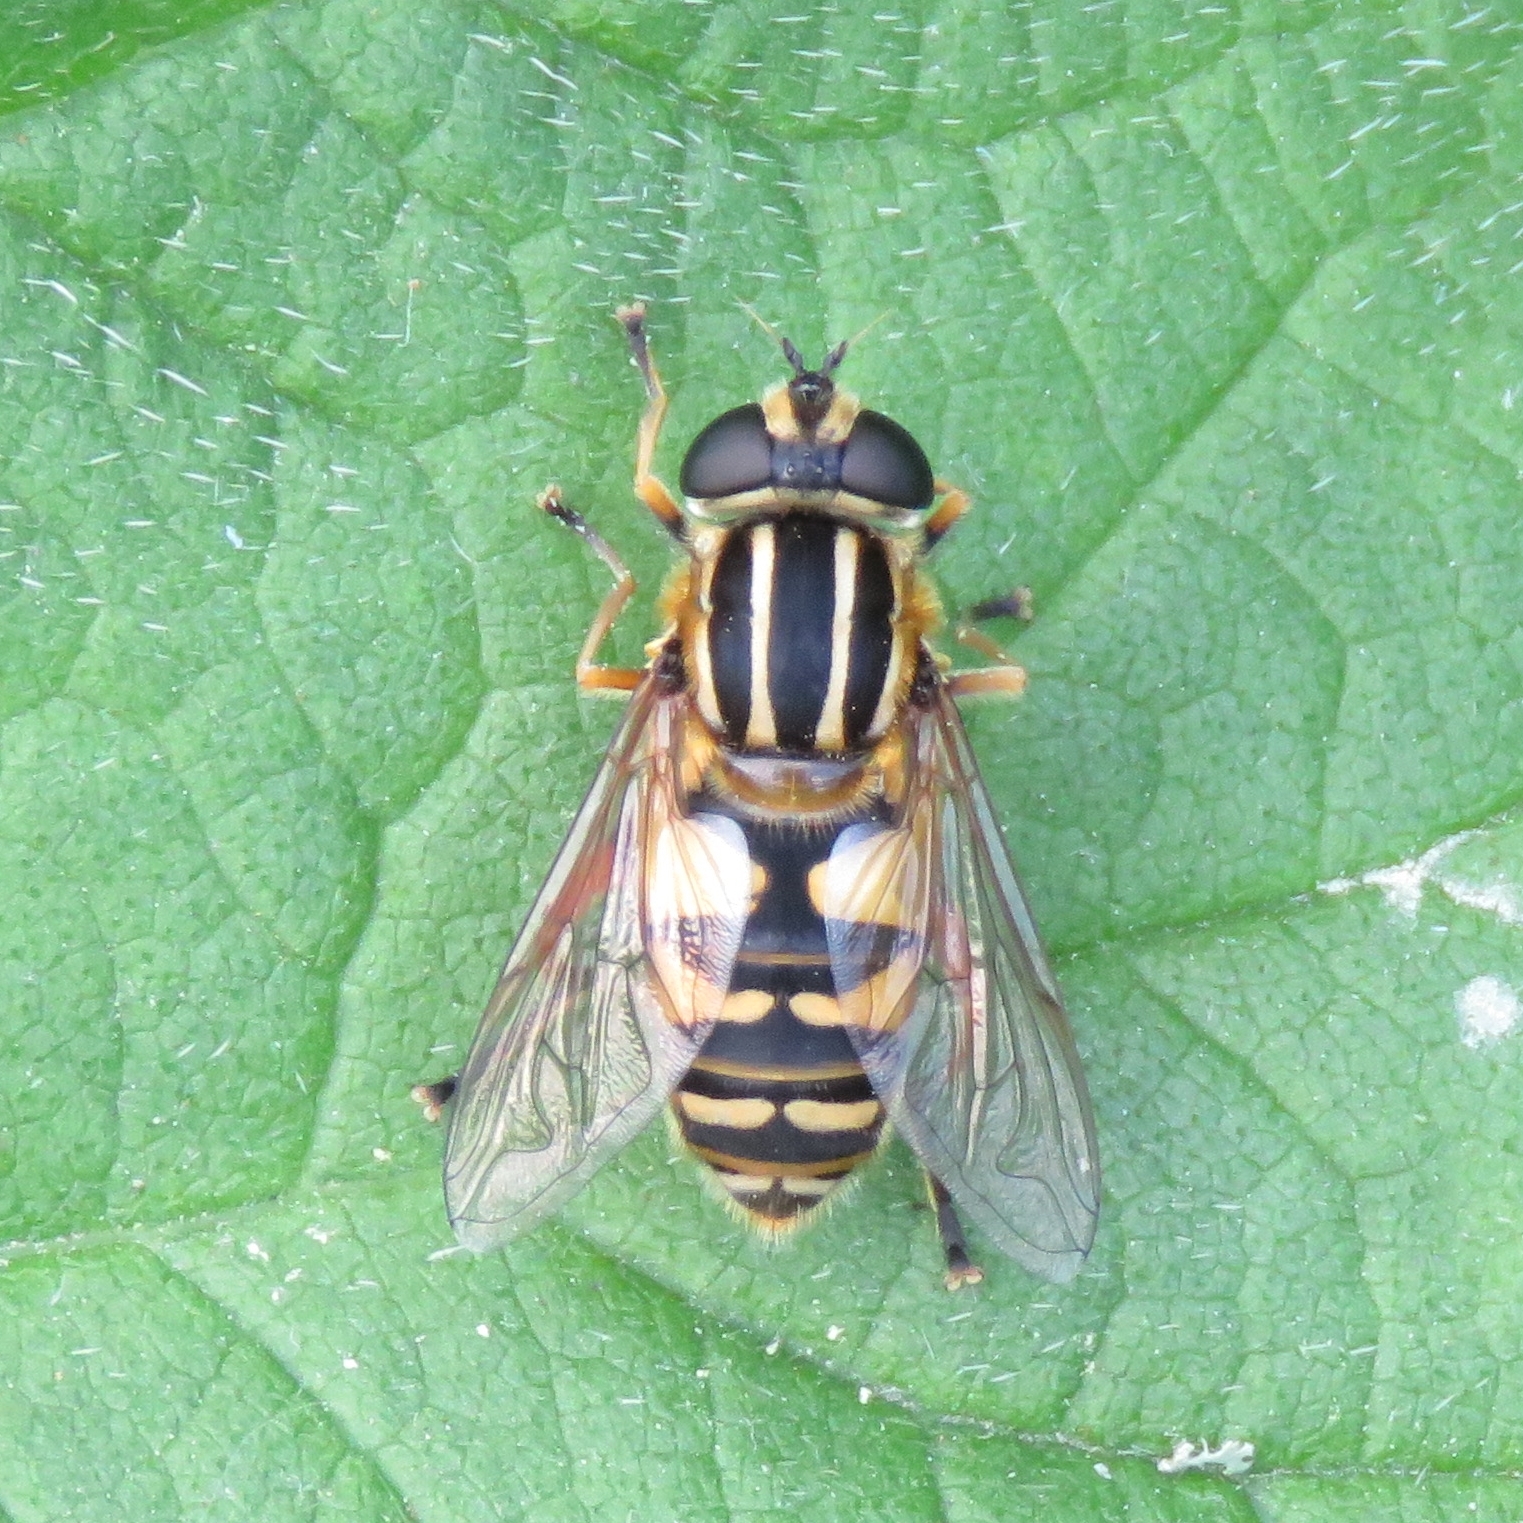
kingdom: Animalia
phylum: Arthropoda
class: Insecta
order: Diptera
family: Syrphidae
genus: Helophilus
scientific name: Helophilus pendulus
